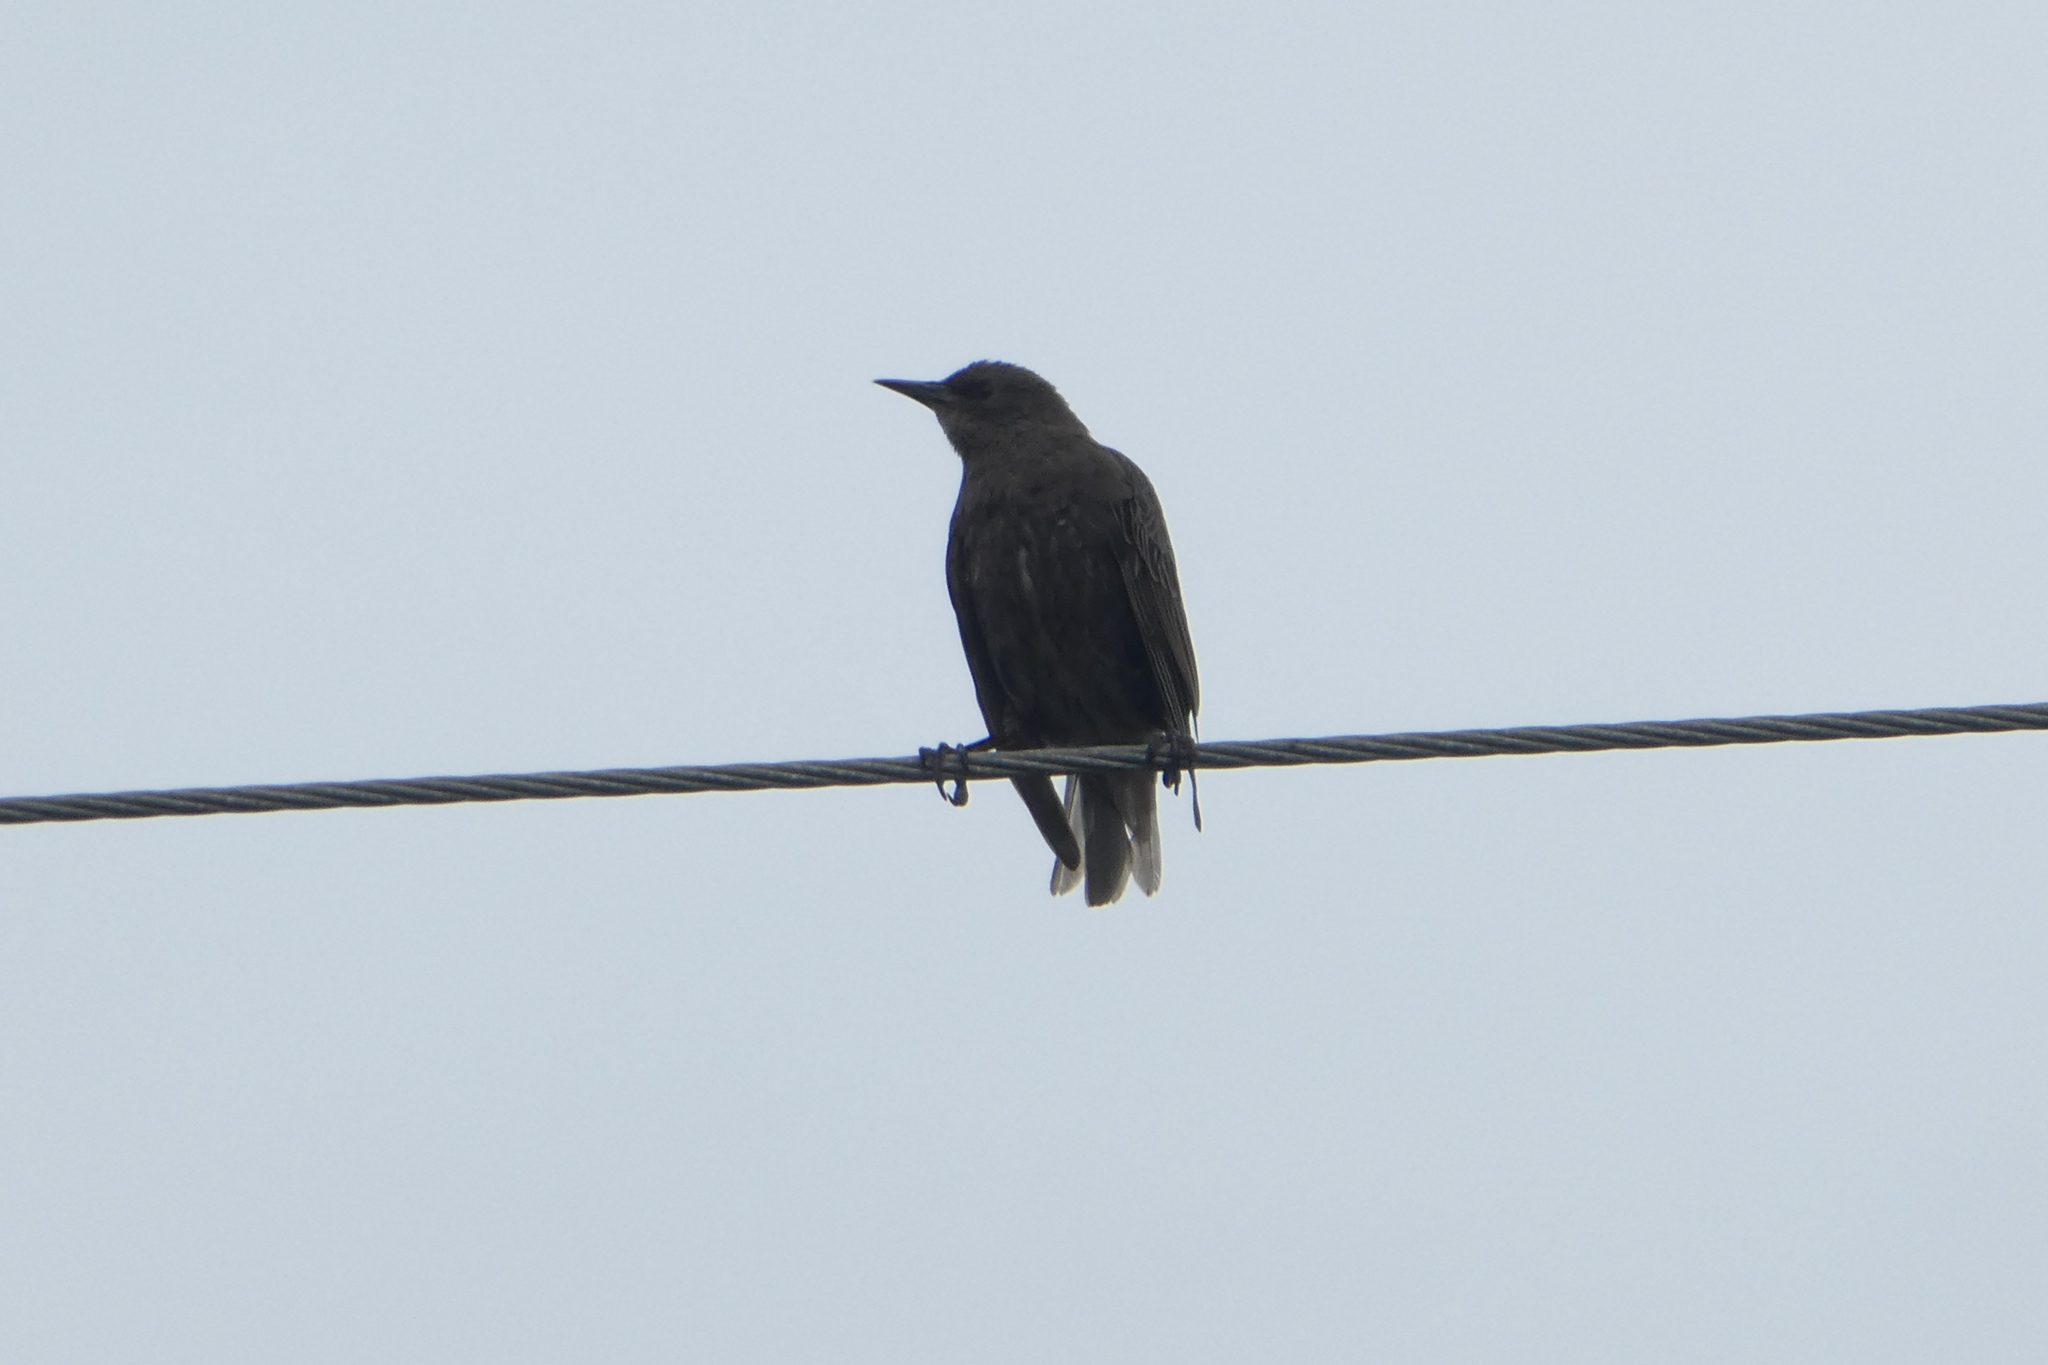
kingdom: Animalia
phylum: Chordata
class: Aves
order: Passeriformes
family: Sturnidae
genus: Sturnus
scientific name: Sturnus vulgaris
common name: Common starling
